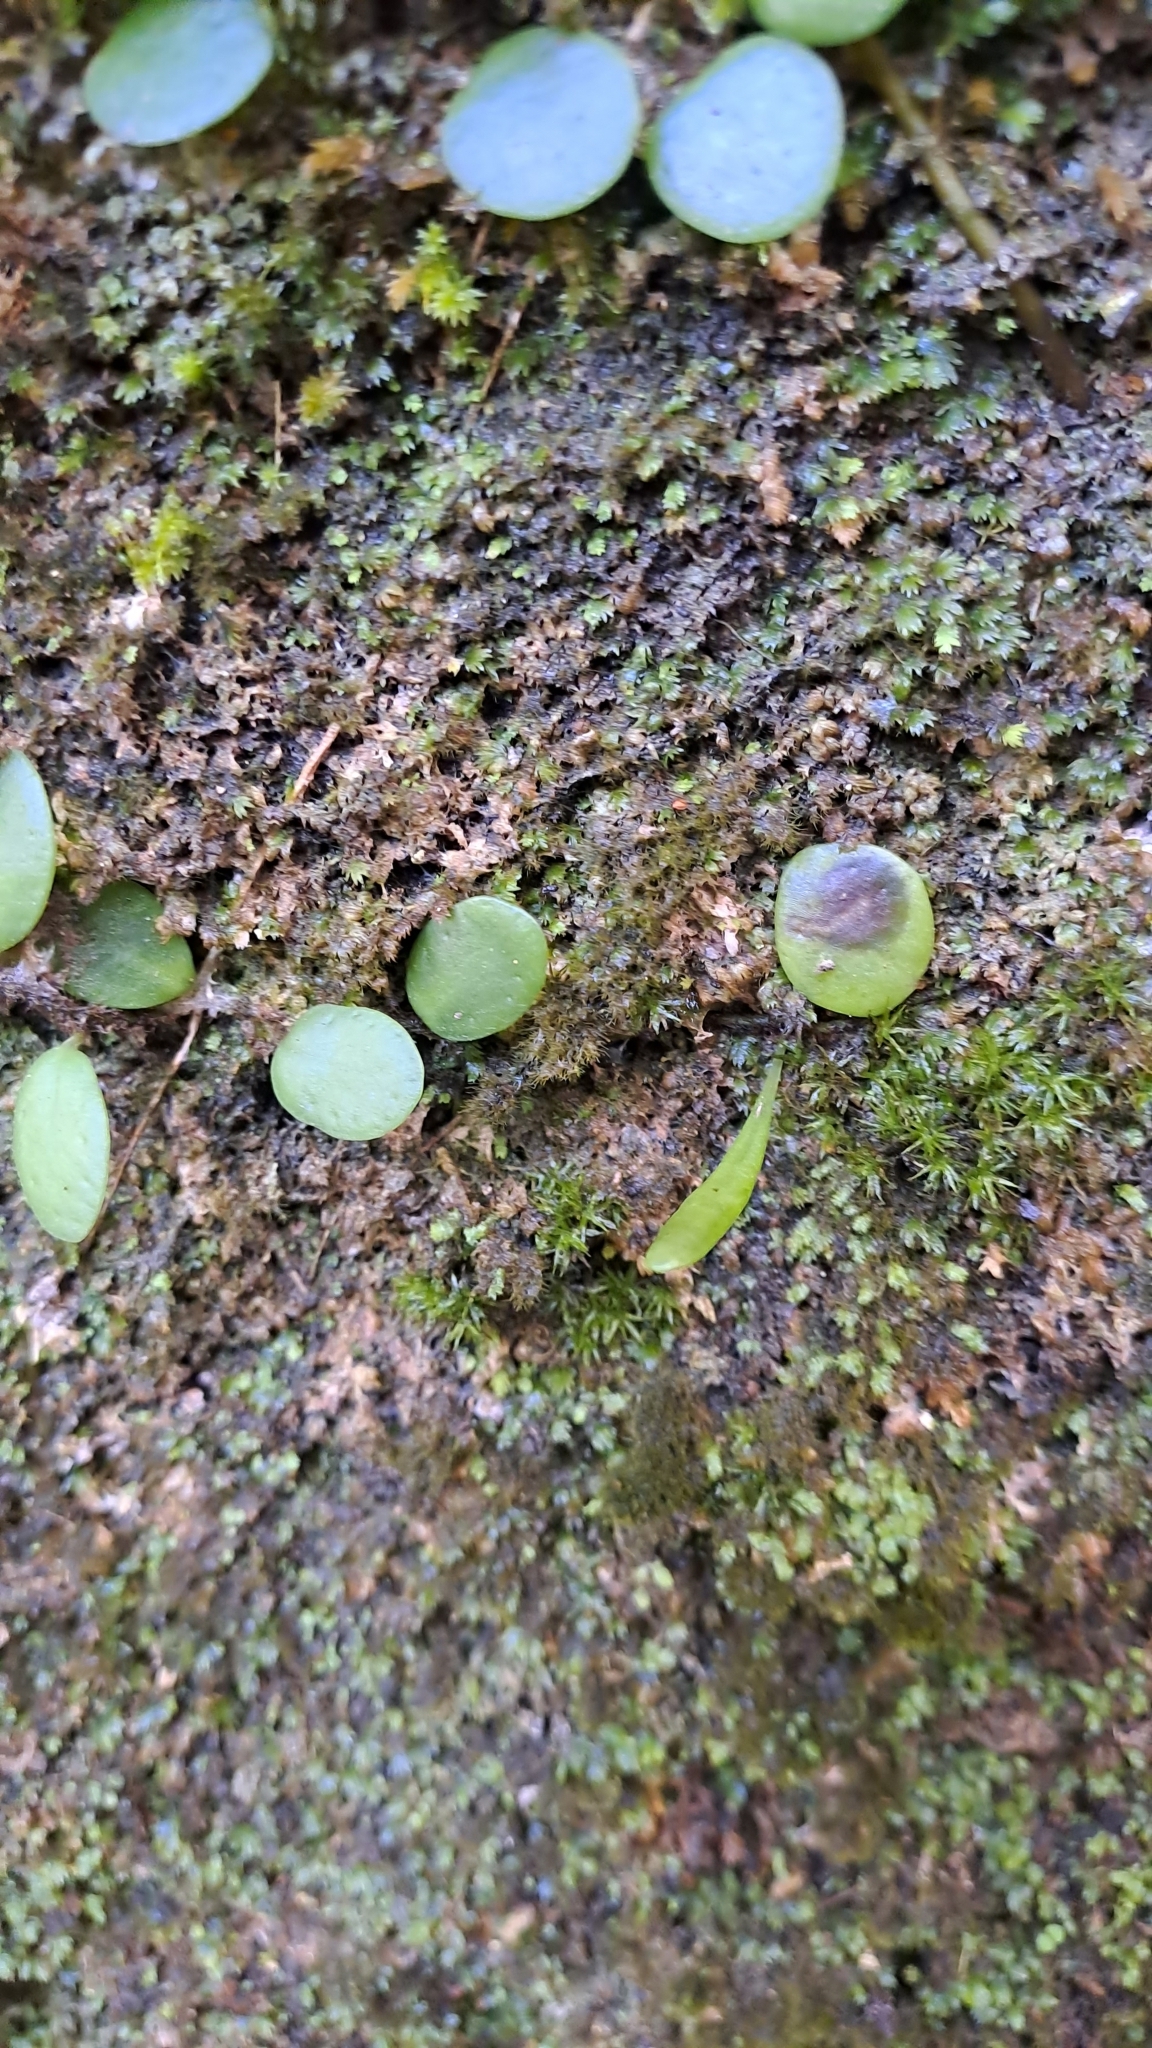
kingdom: Plantae
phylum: Tracheophyta
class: Polypodiopsida
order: Polypodiales
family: Polypodiaceae
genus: Lepisorus
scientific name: Lepisorus microphyllus
